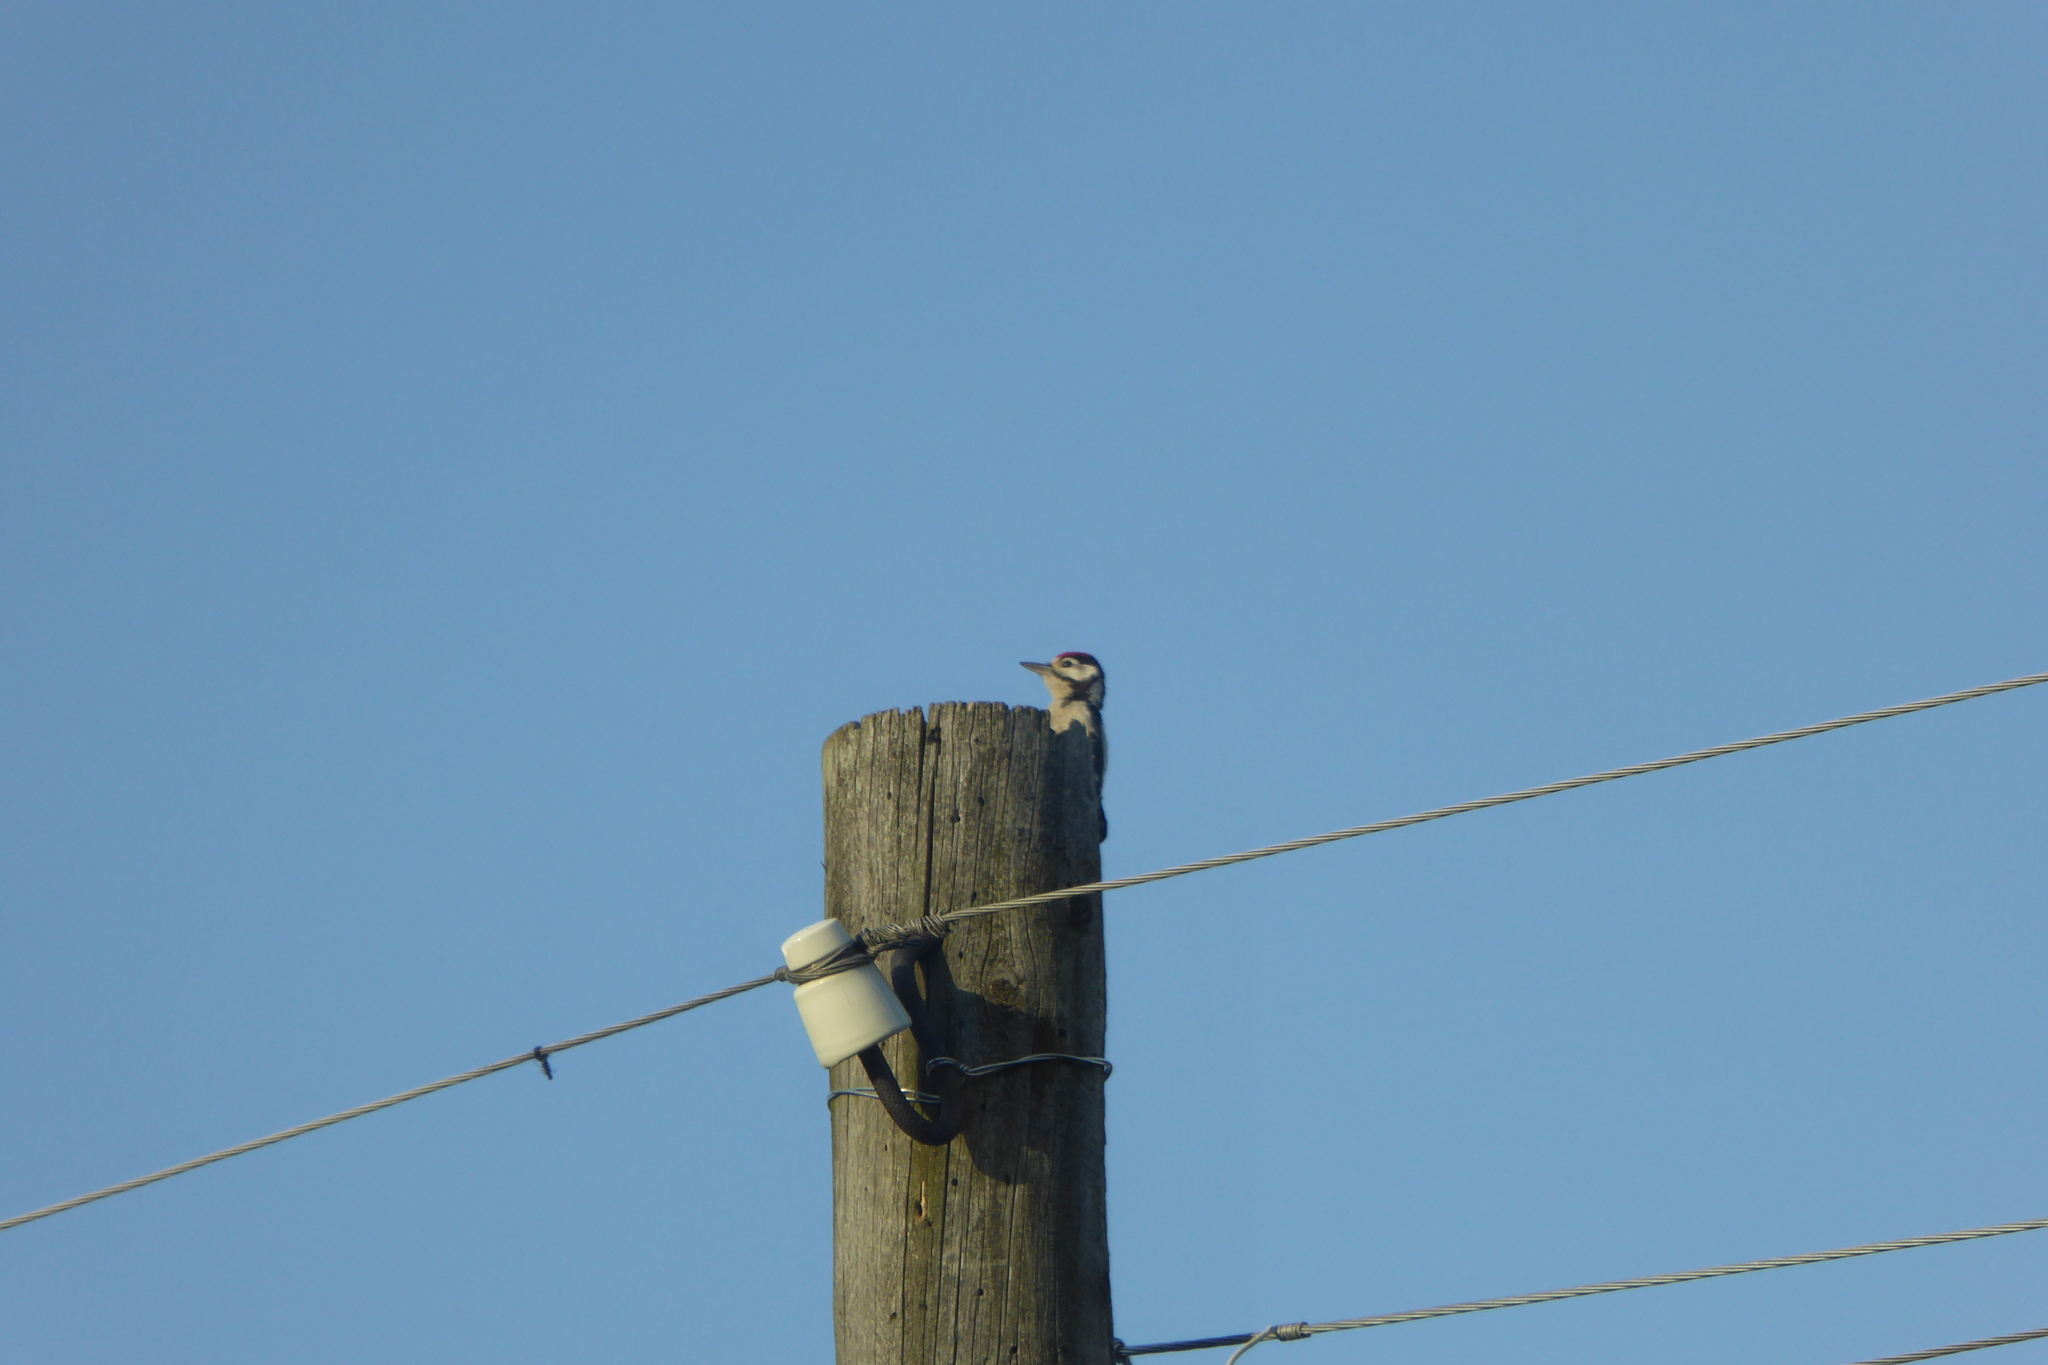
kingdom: Animalia
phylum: Chordata
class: Aves
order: Piciformes
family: Picidae
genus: Dendrocopos
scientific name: Dendrocopos major
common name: Great spotted woodpecker
